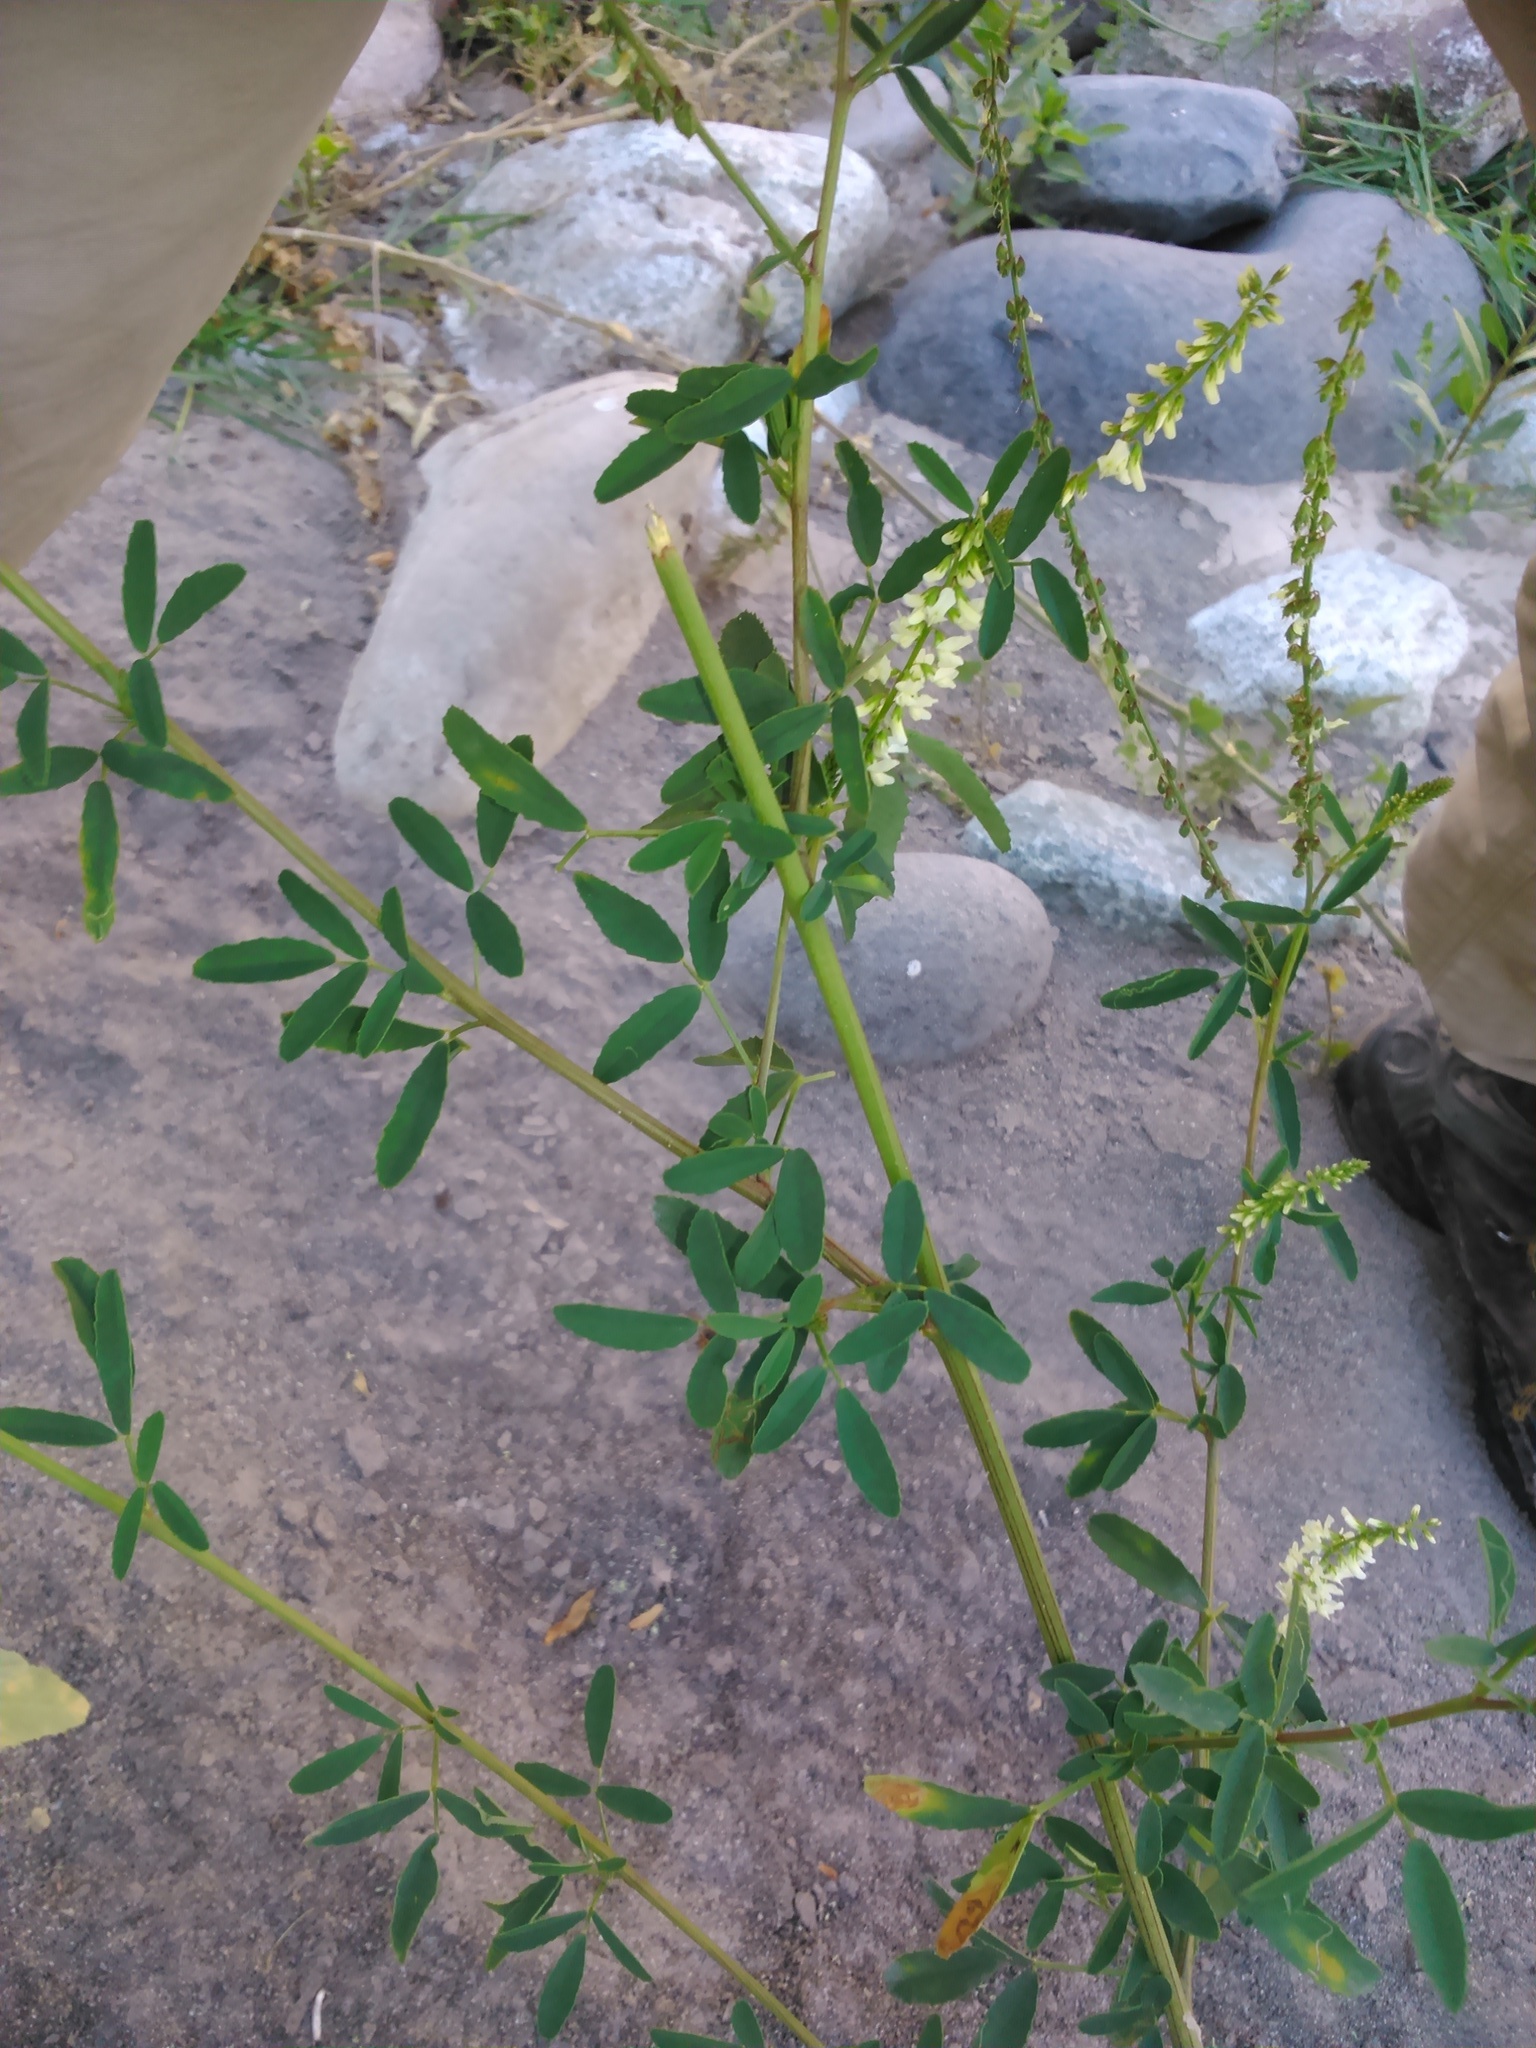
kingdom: Plantae
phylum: Tracheophyta
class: Magnoliopsida
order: Fabales
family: Fabaceae
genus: Melilotus
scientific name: Melilotus albus
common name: White melilot
